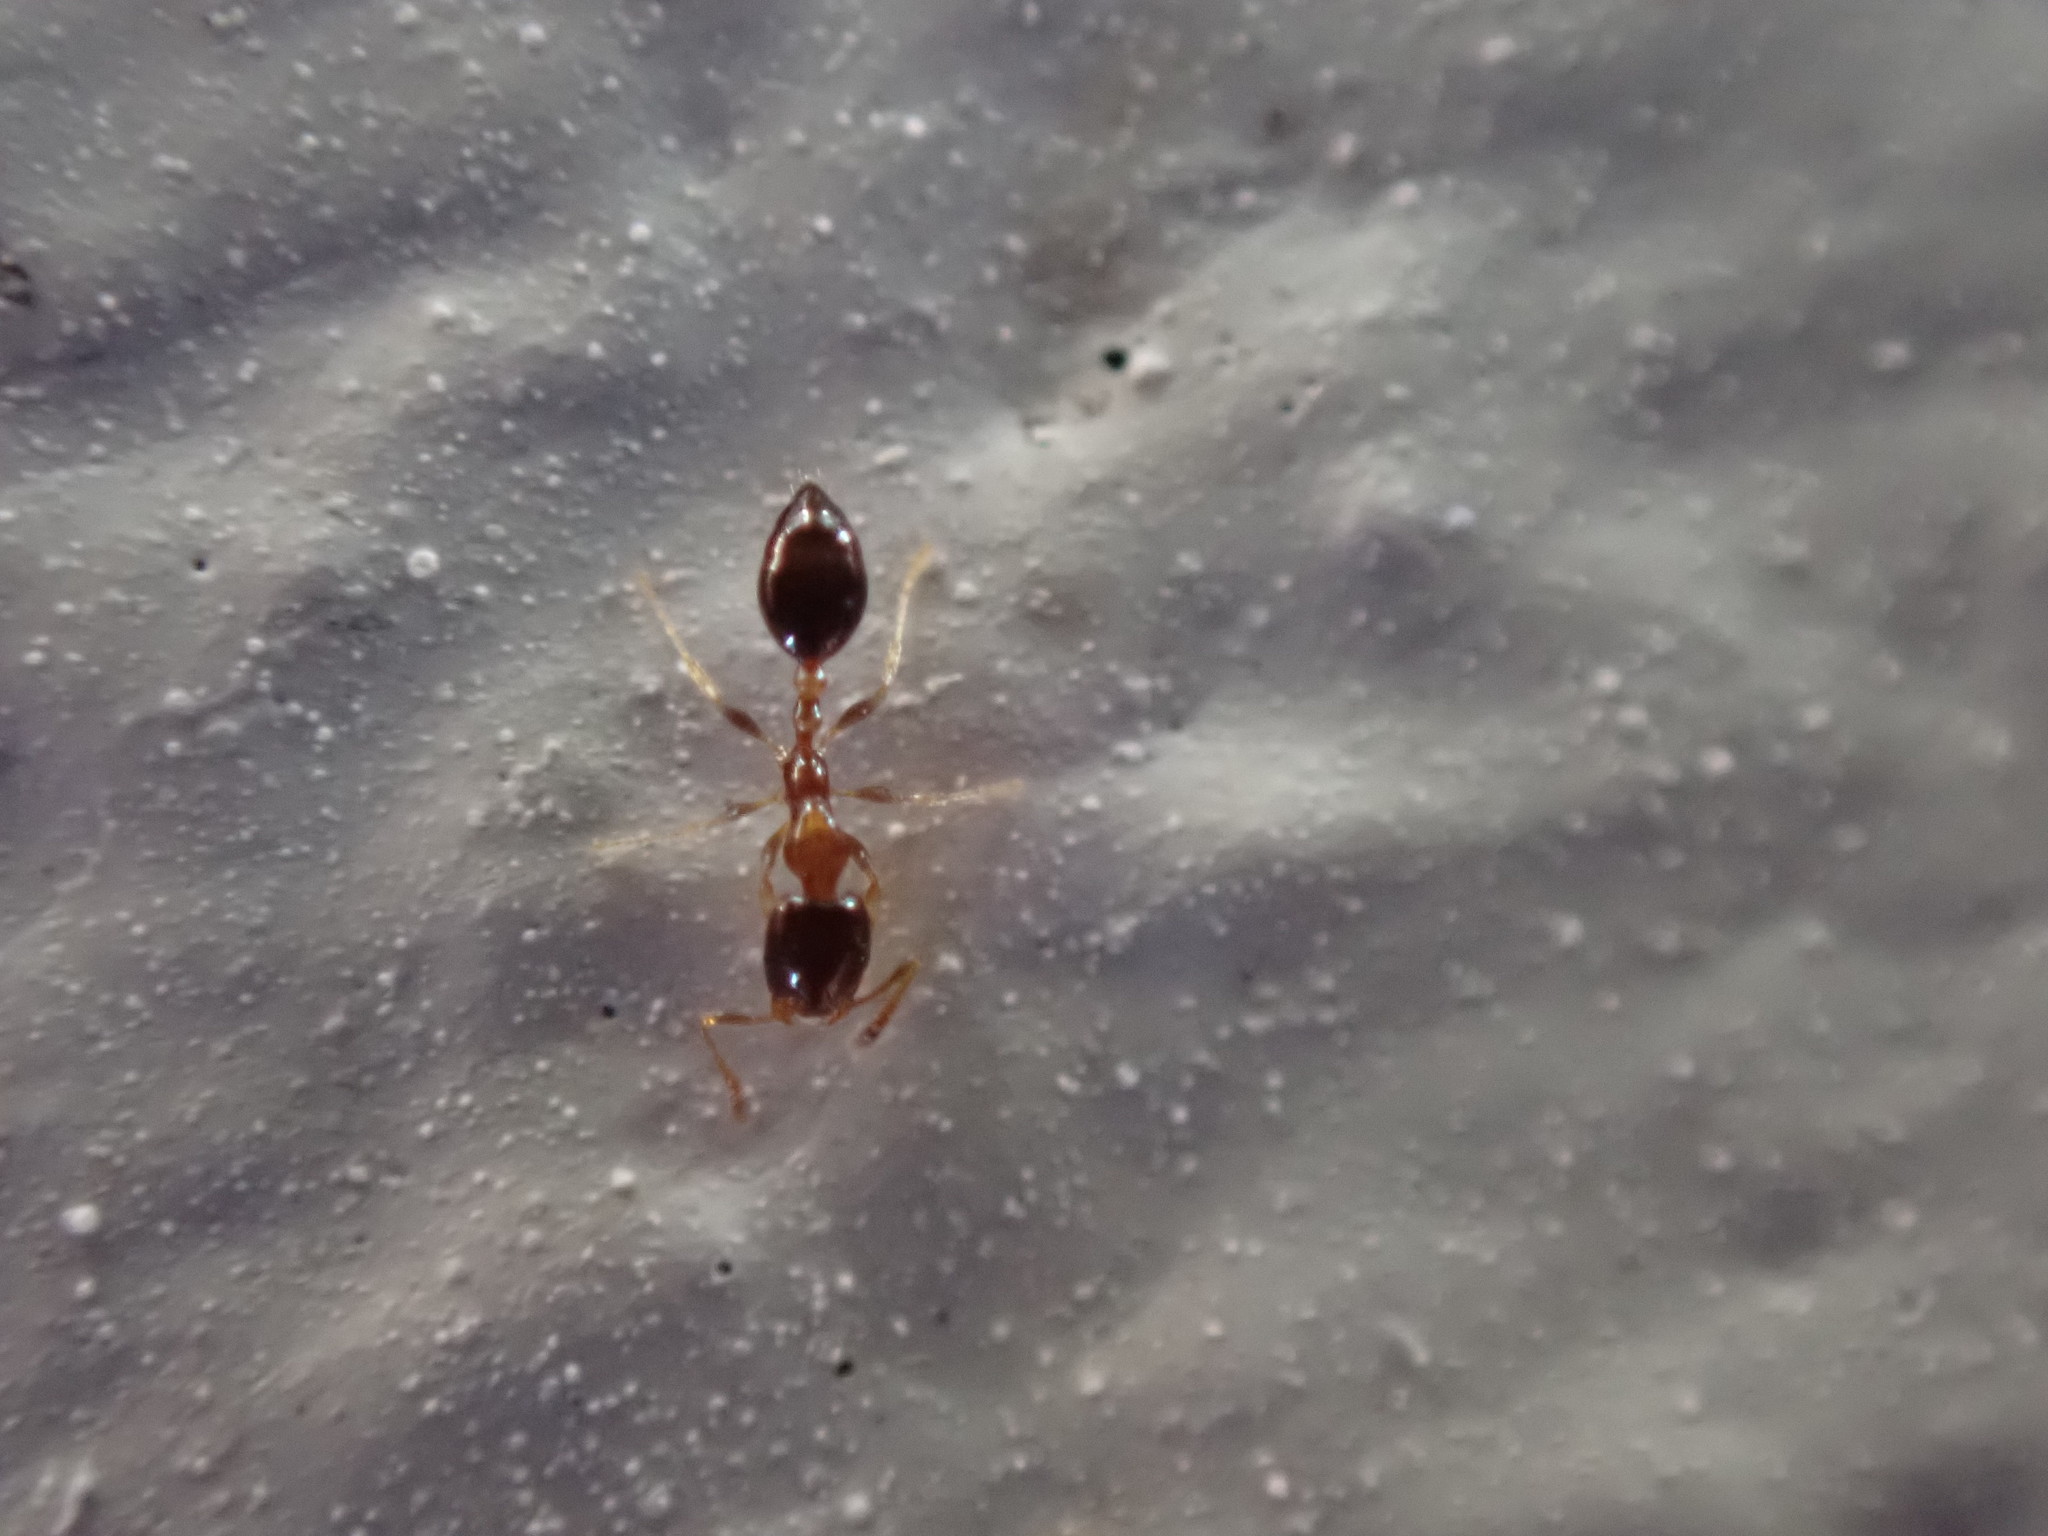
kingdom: Animalia
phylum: Arthropoda
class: Insecta
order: Hymenoptera
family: Formicidae
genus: Monomorium
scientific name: Monomorium floricola
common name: Bicolored trailing ant
